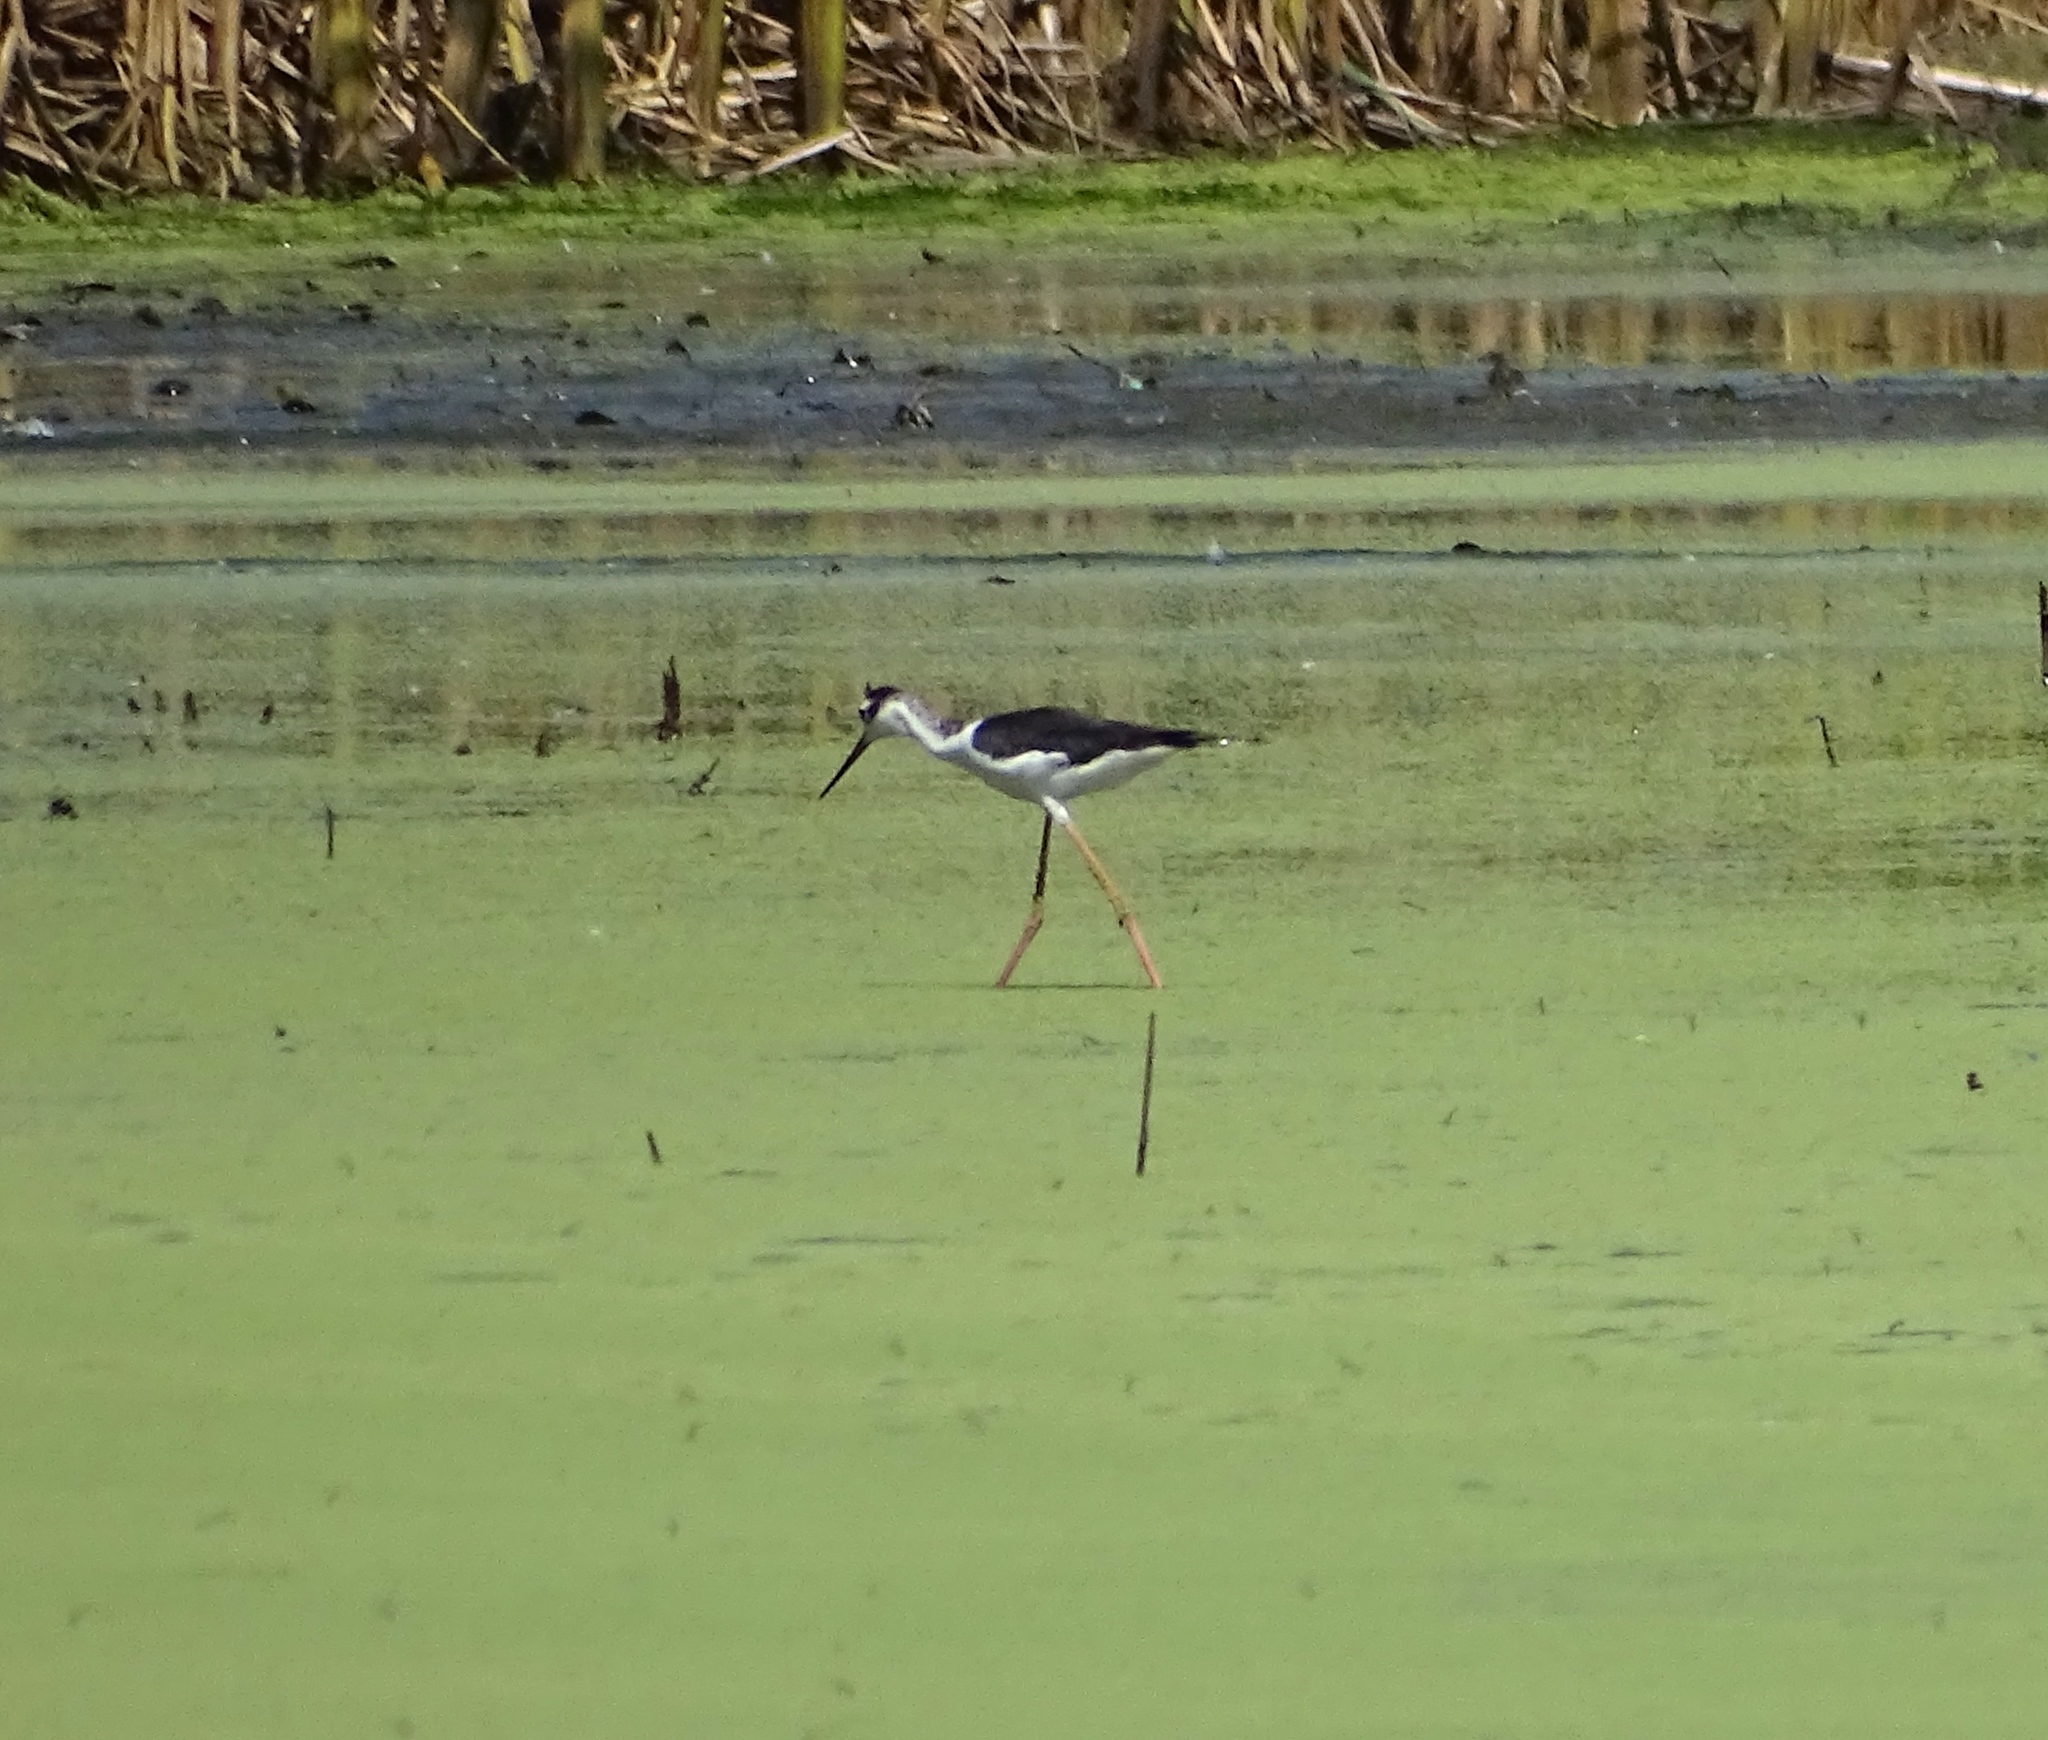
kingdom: Animalia
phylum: Chordata
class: Aves
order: Charadriiformes
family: Recurvirostridae
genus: Himantopus
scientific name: Himantopus mexicanus
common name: Black-necked stilt
